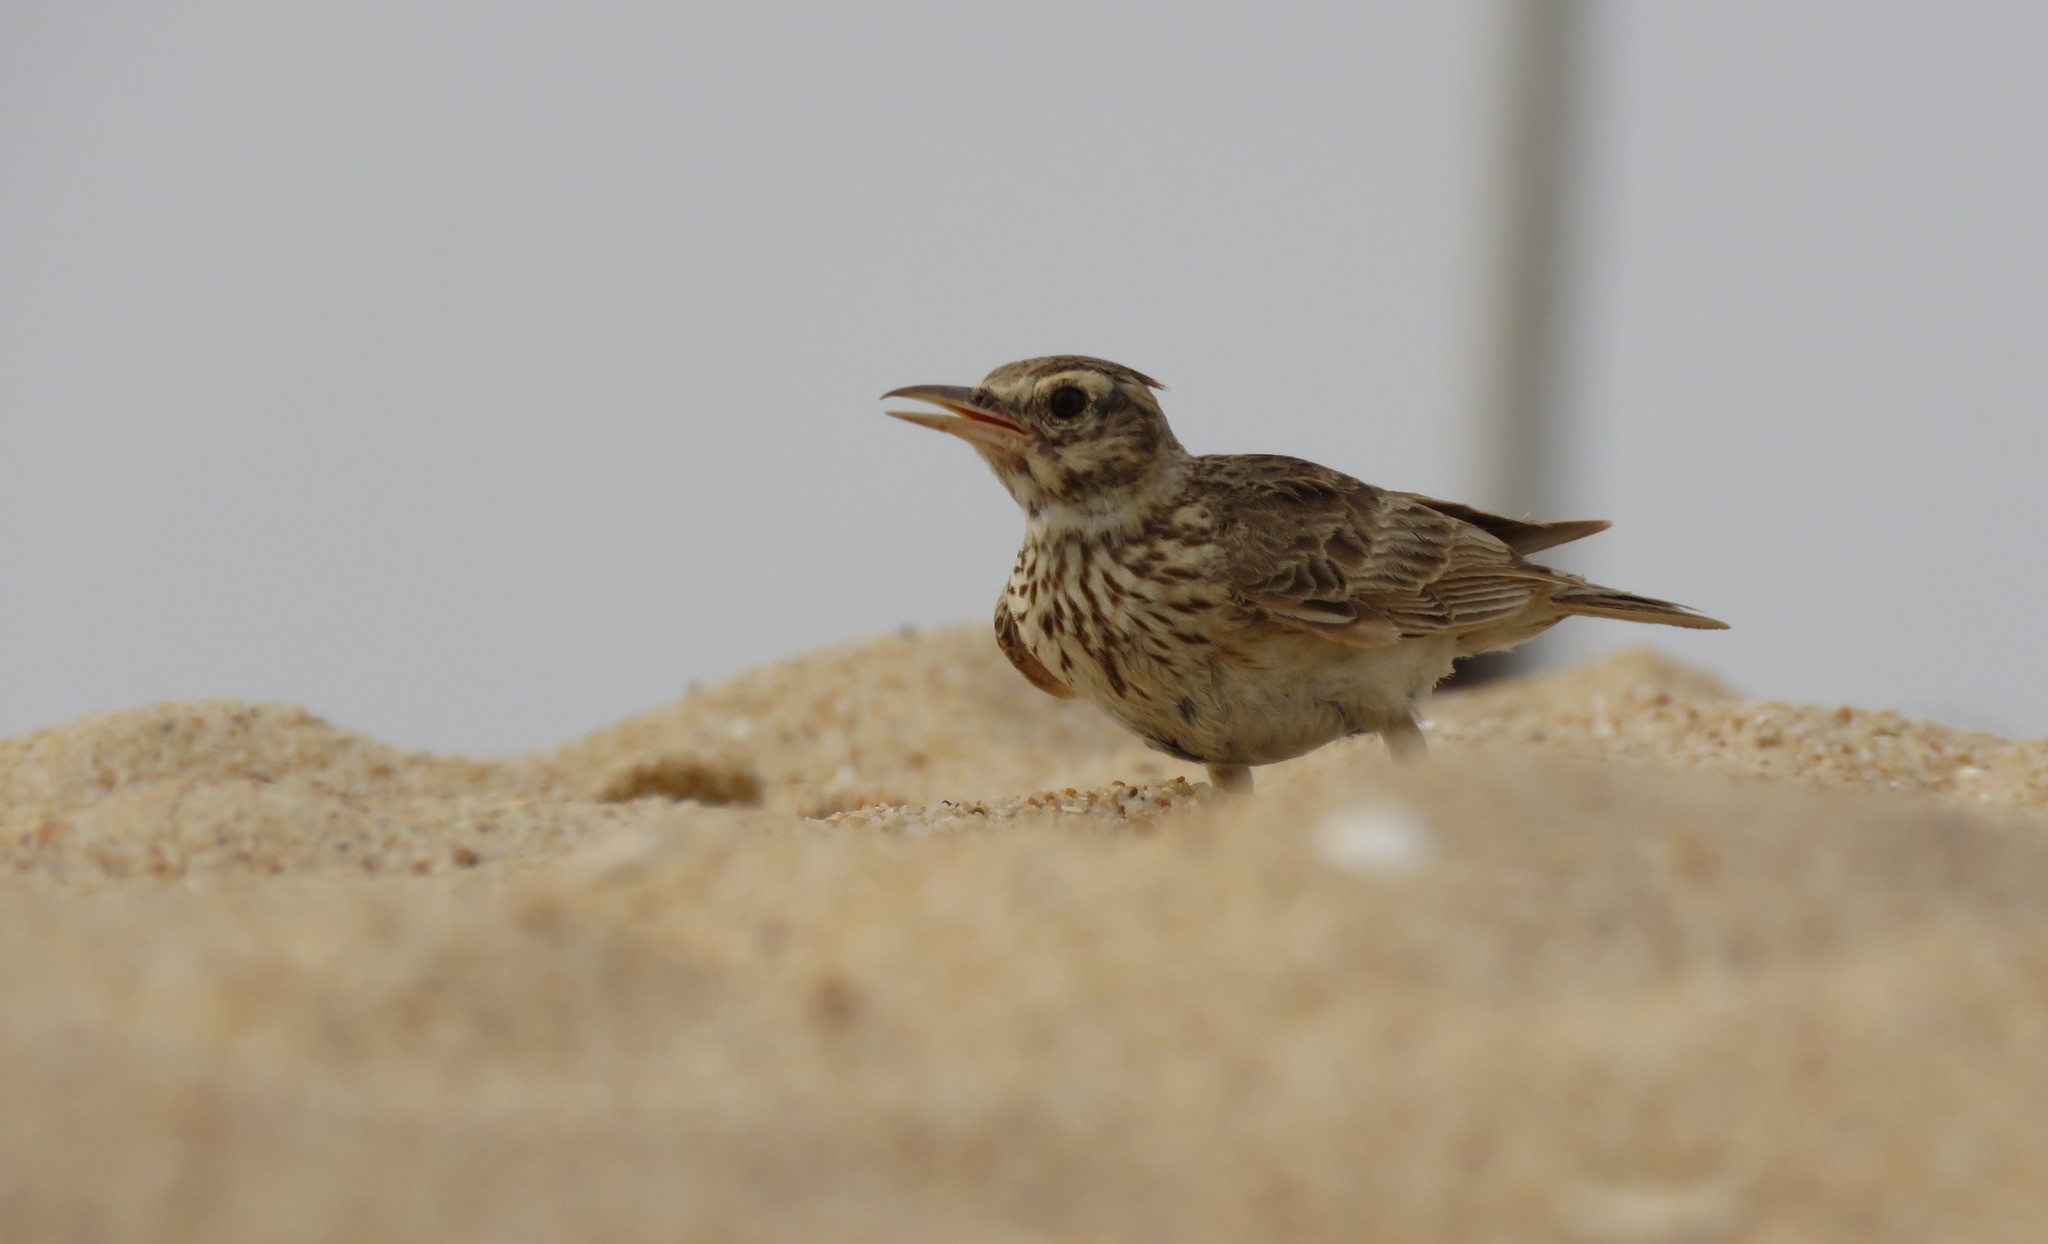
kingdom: Animalia
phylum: Chordata
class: Aves
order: Passeriformes
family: Alaudidae
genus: Galerida
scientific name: Galerida cristata
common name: Crested lark
